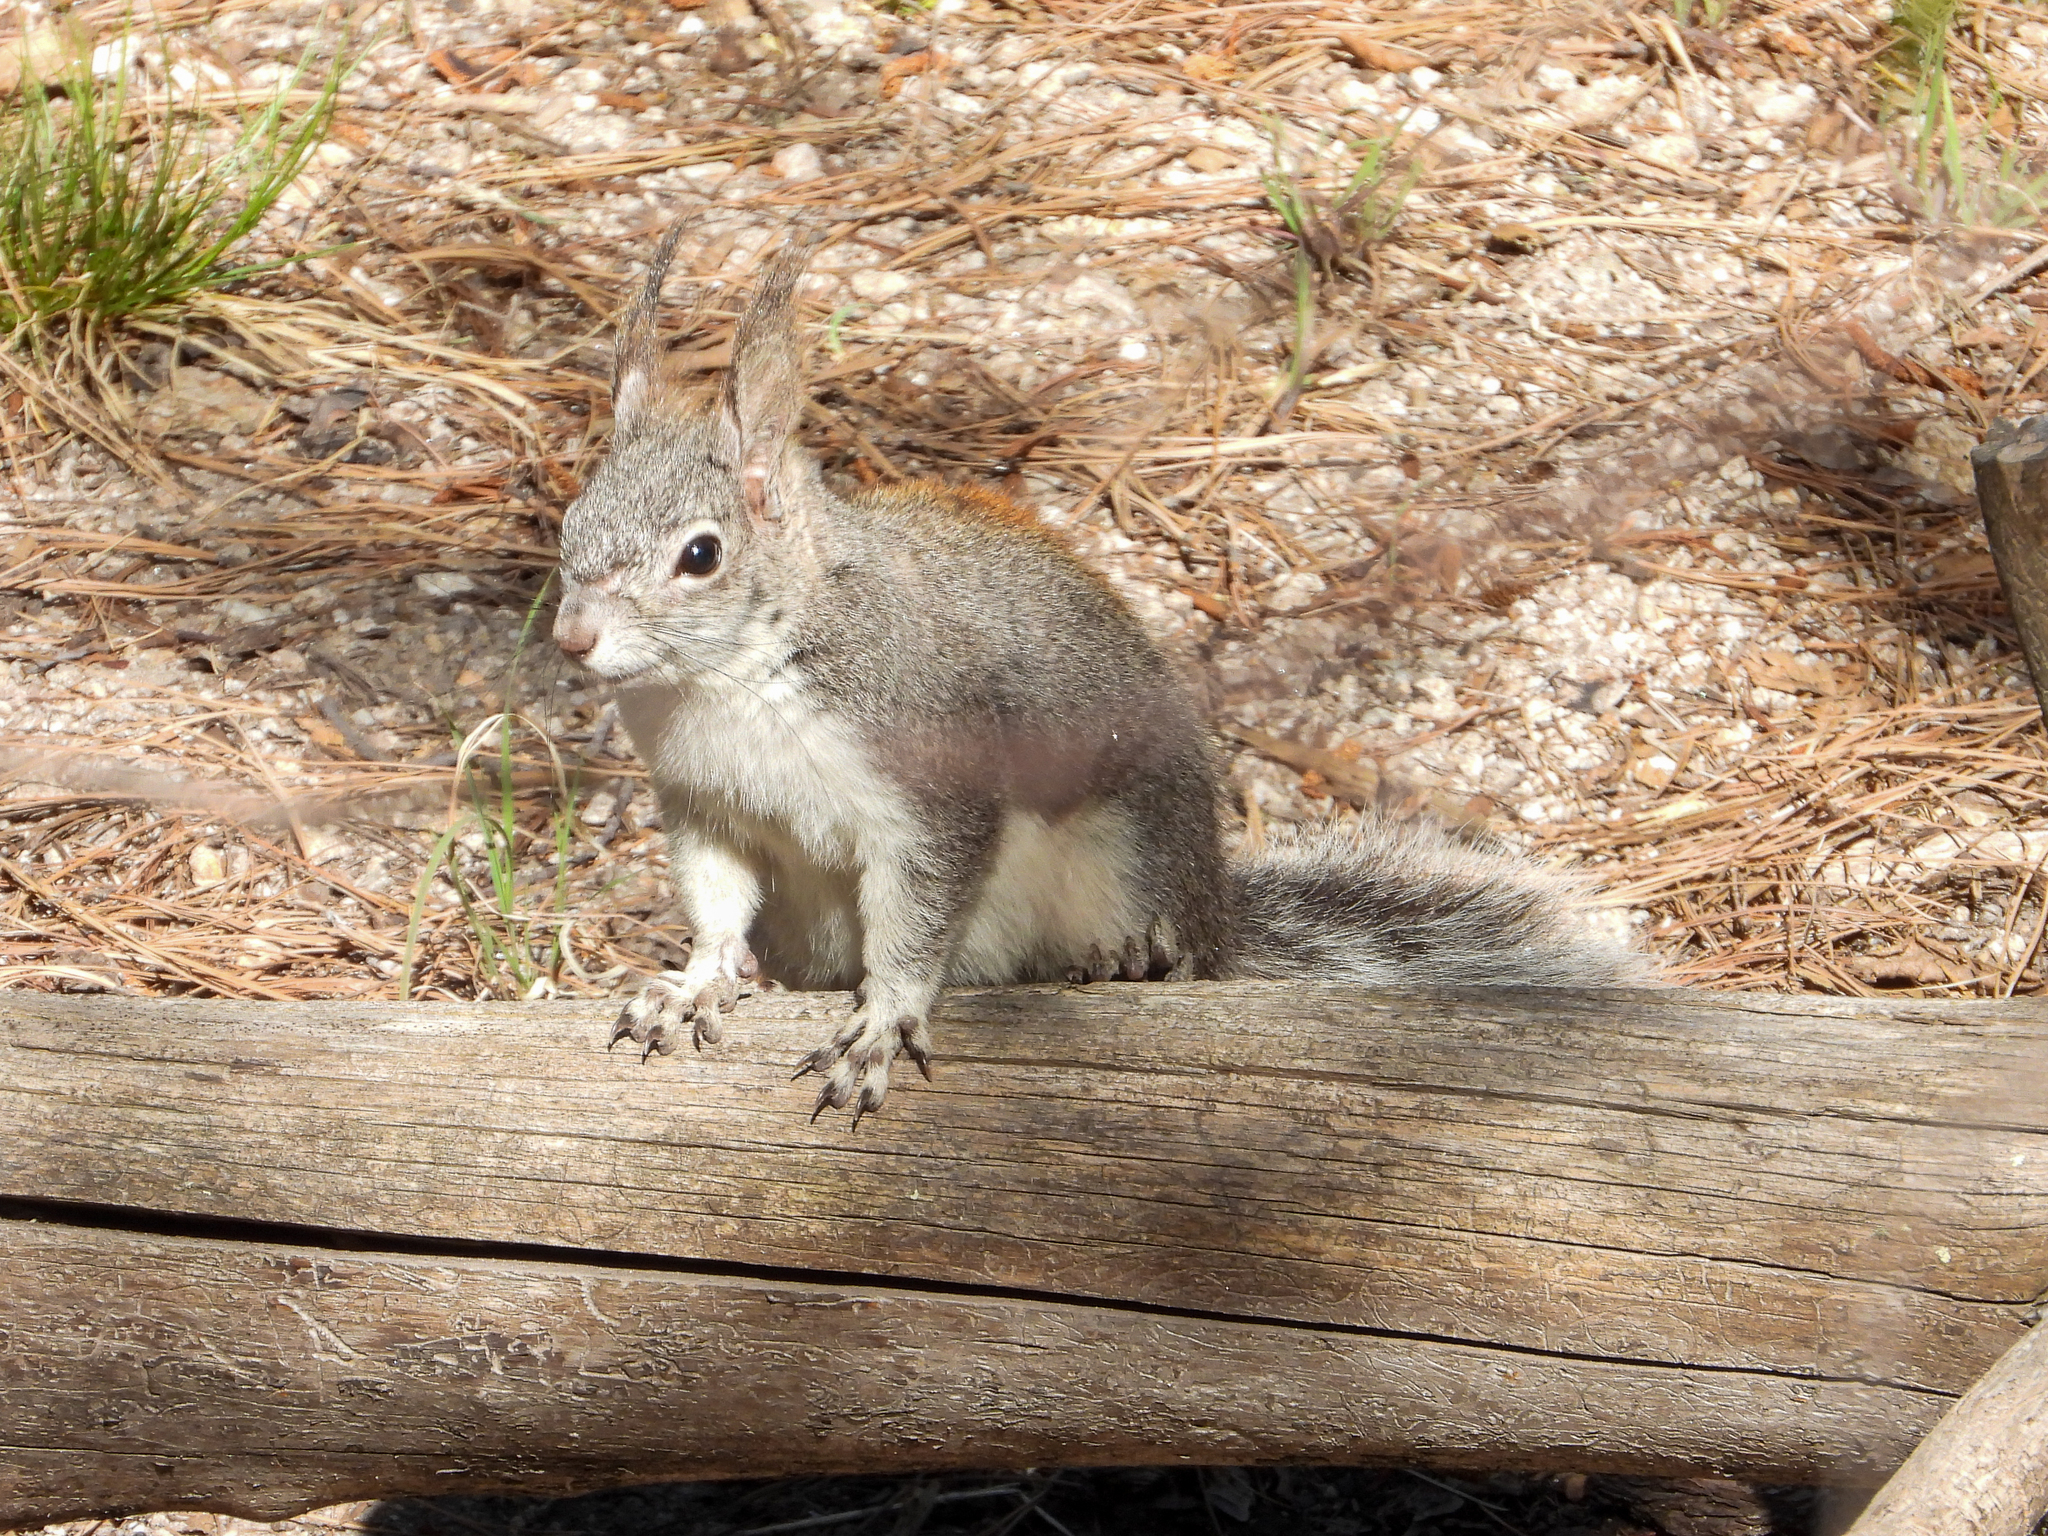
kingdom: Animalia
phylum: Chordata
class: Mammalia
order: Rodentia
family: Sciuridae
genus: Sciurus
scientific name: Sciurus aberti
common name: Abert's squirrel
